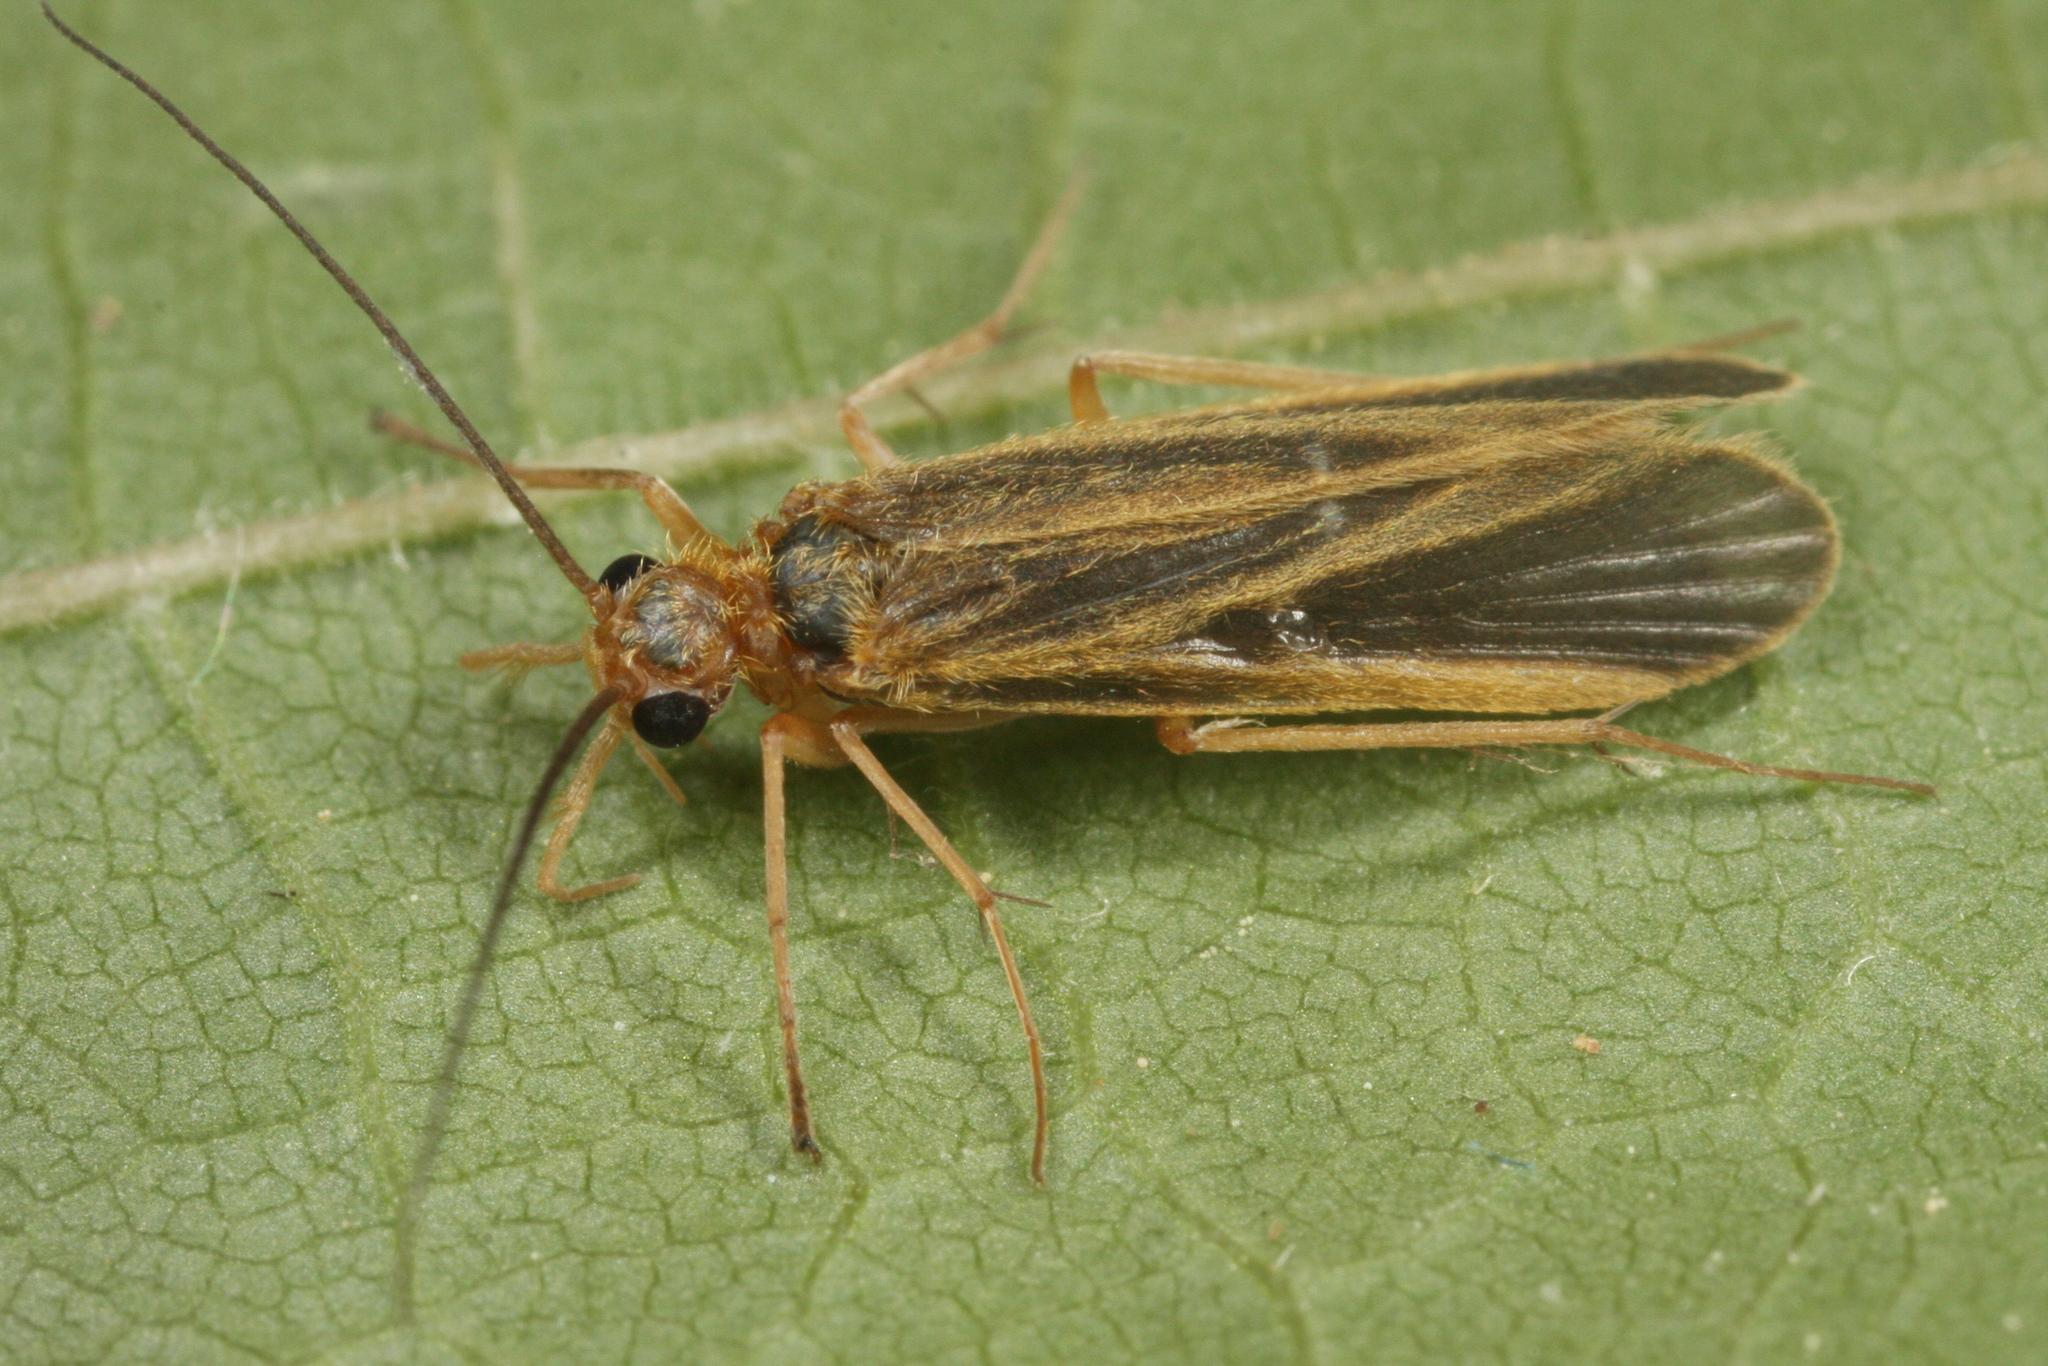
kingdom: Animalia
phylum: Arthropoda
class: Insecta
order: Trichoptera
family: Philopotamidae
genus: Chimarra
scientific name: Chimarra marginata
